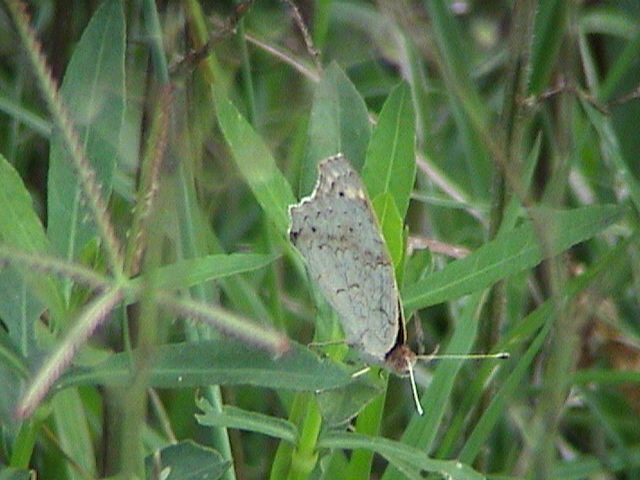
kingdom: Animalia
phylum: Arthropoda
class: Insecta
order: Lepidoptera
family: Nymphalidae
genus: Junonia
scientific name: Junonia orithya
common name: Blue pansy
